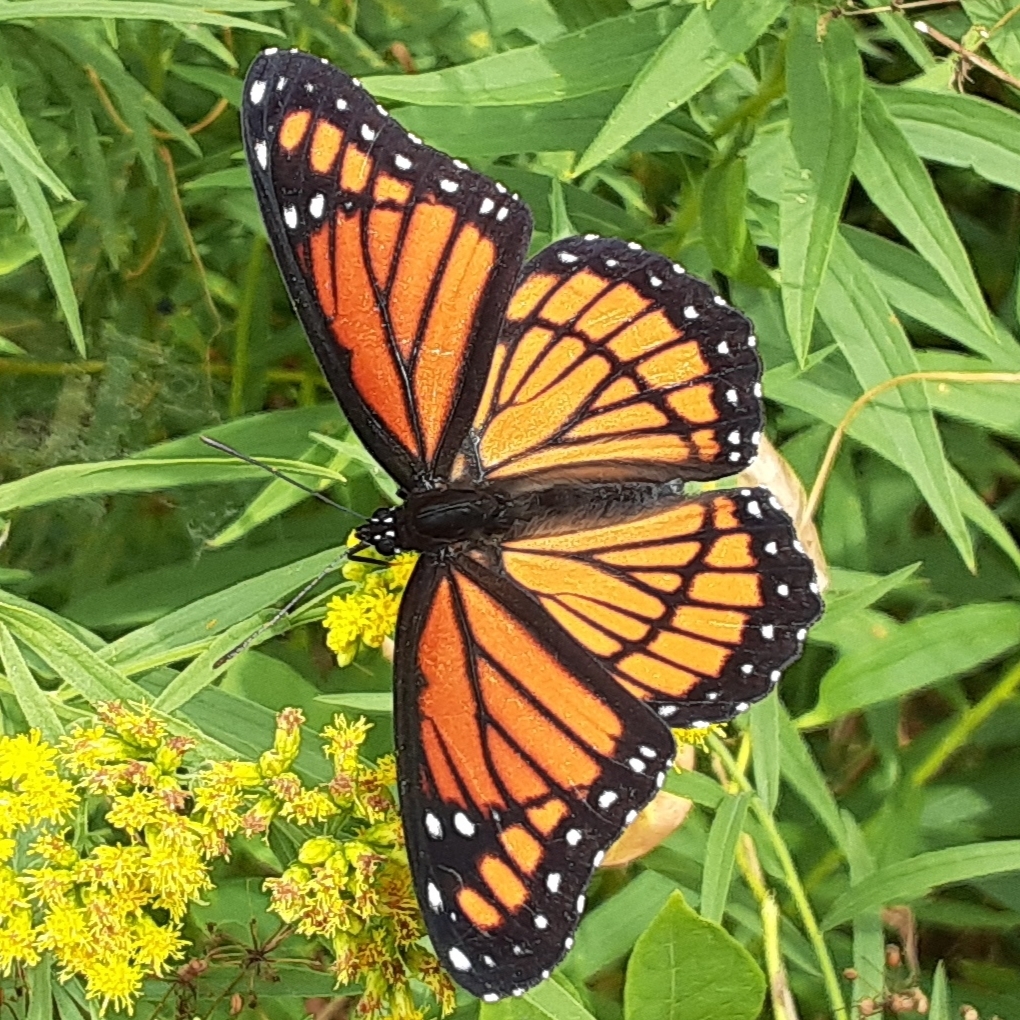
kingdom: Animalia
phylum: Arthropoda
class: Insecta
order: Lepidoptera
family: Nymphalidae
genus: Limenitis
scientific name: Limenitis archippus
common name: Viceroy
